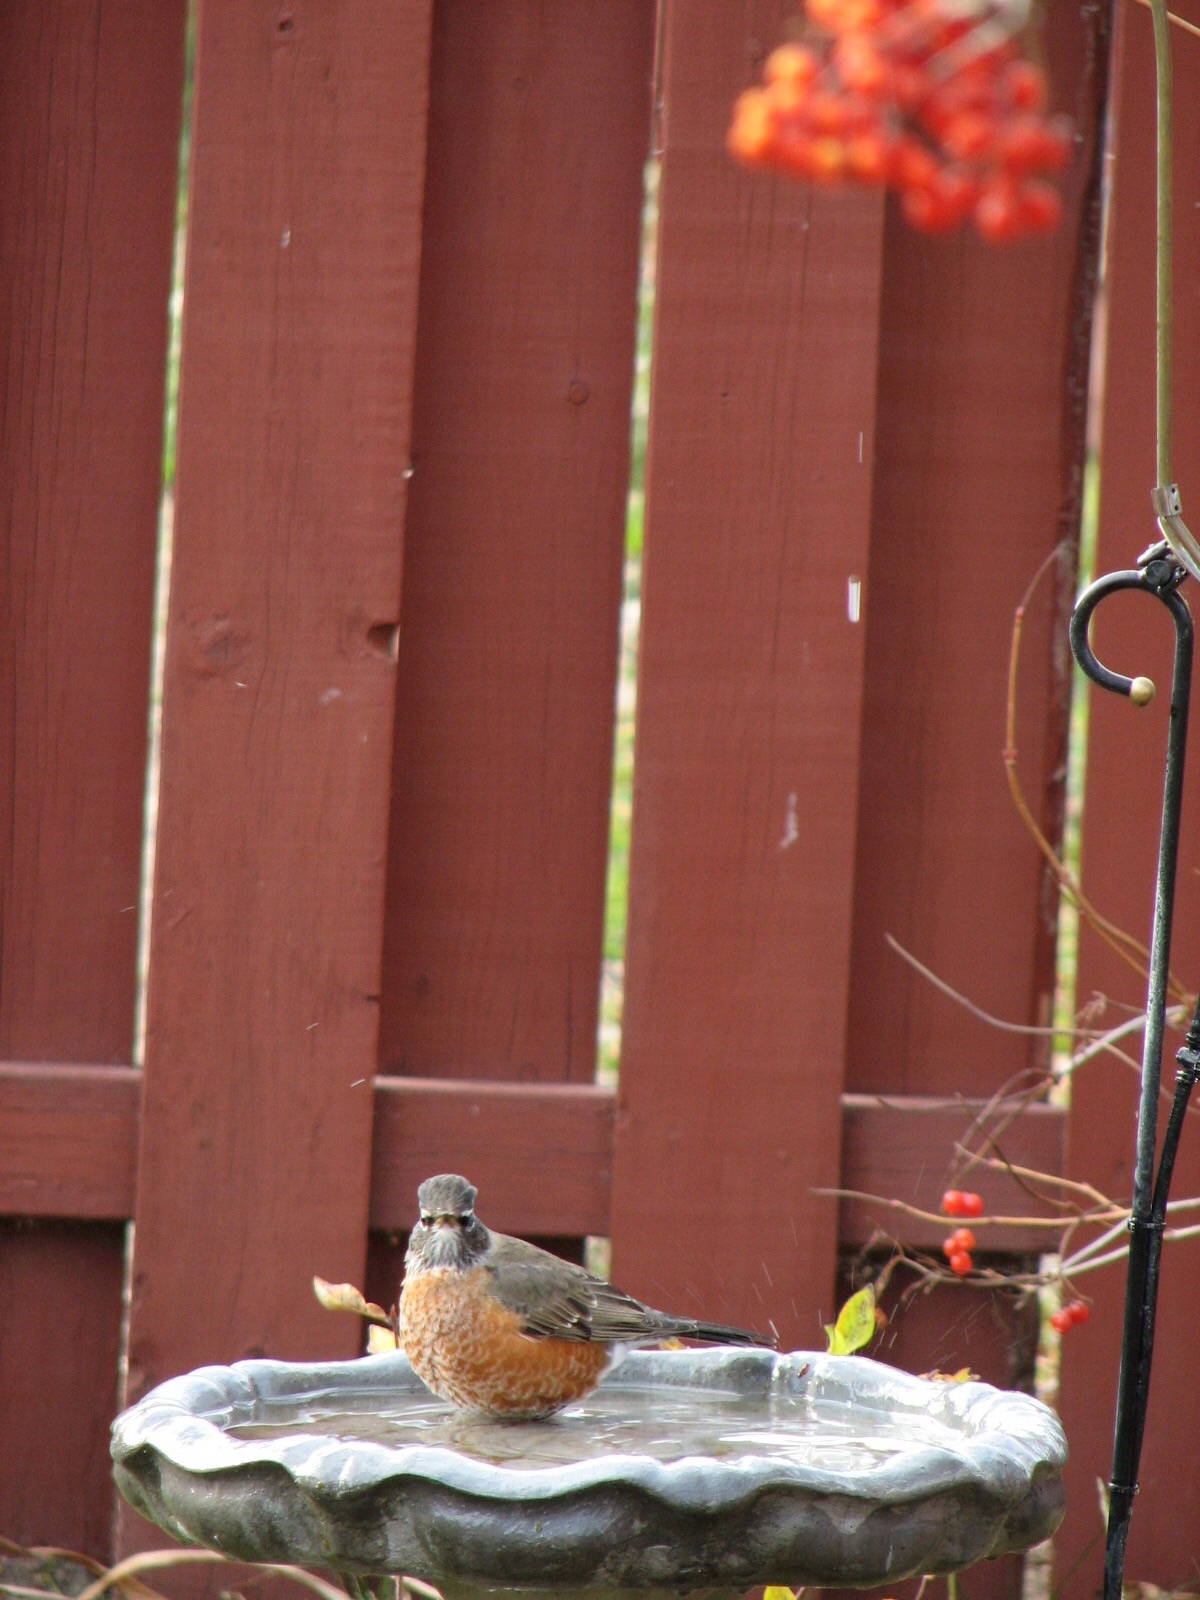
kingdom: Animalia
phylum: Chordata
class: Aves
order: Passeriformes
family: Turdidae
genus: Turdus
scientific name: Turdus migratorius
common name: American robin
